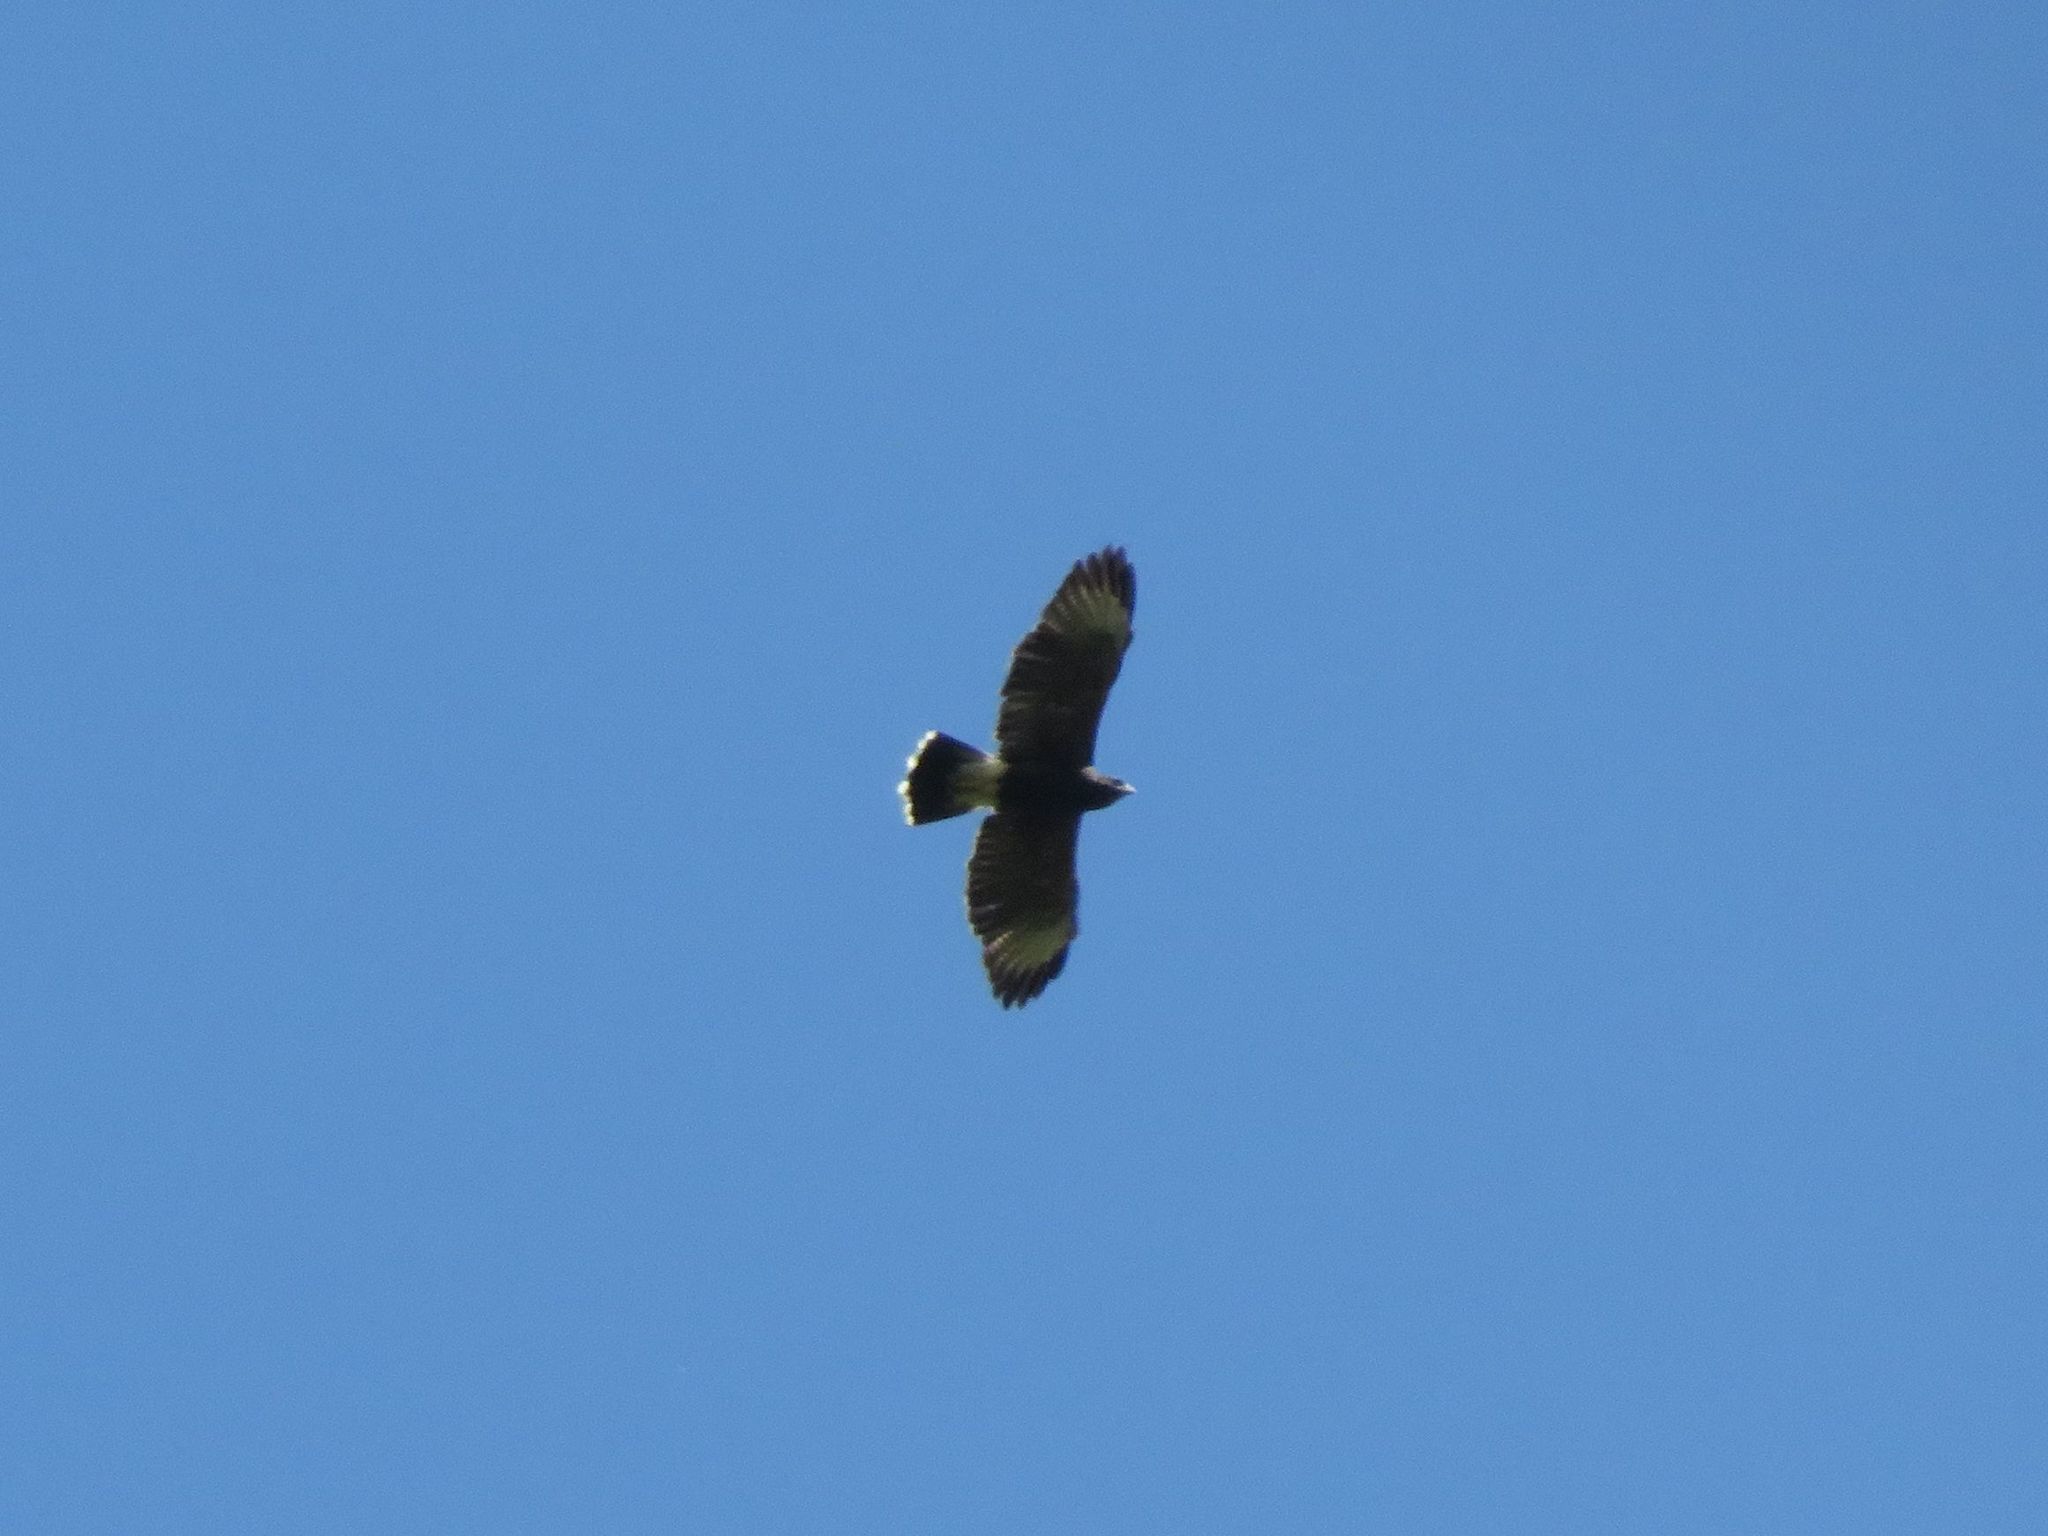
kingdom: Animalia
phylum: Chordata
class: Aves
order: Accipitriformes
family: Accipitridae
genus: Parabuteo
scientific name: Parabuteo unicinctus
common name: Harris's hawk
